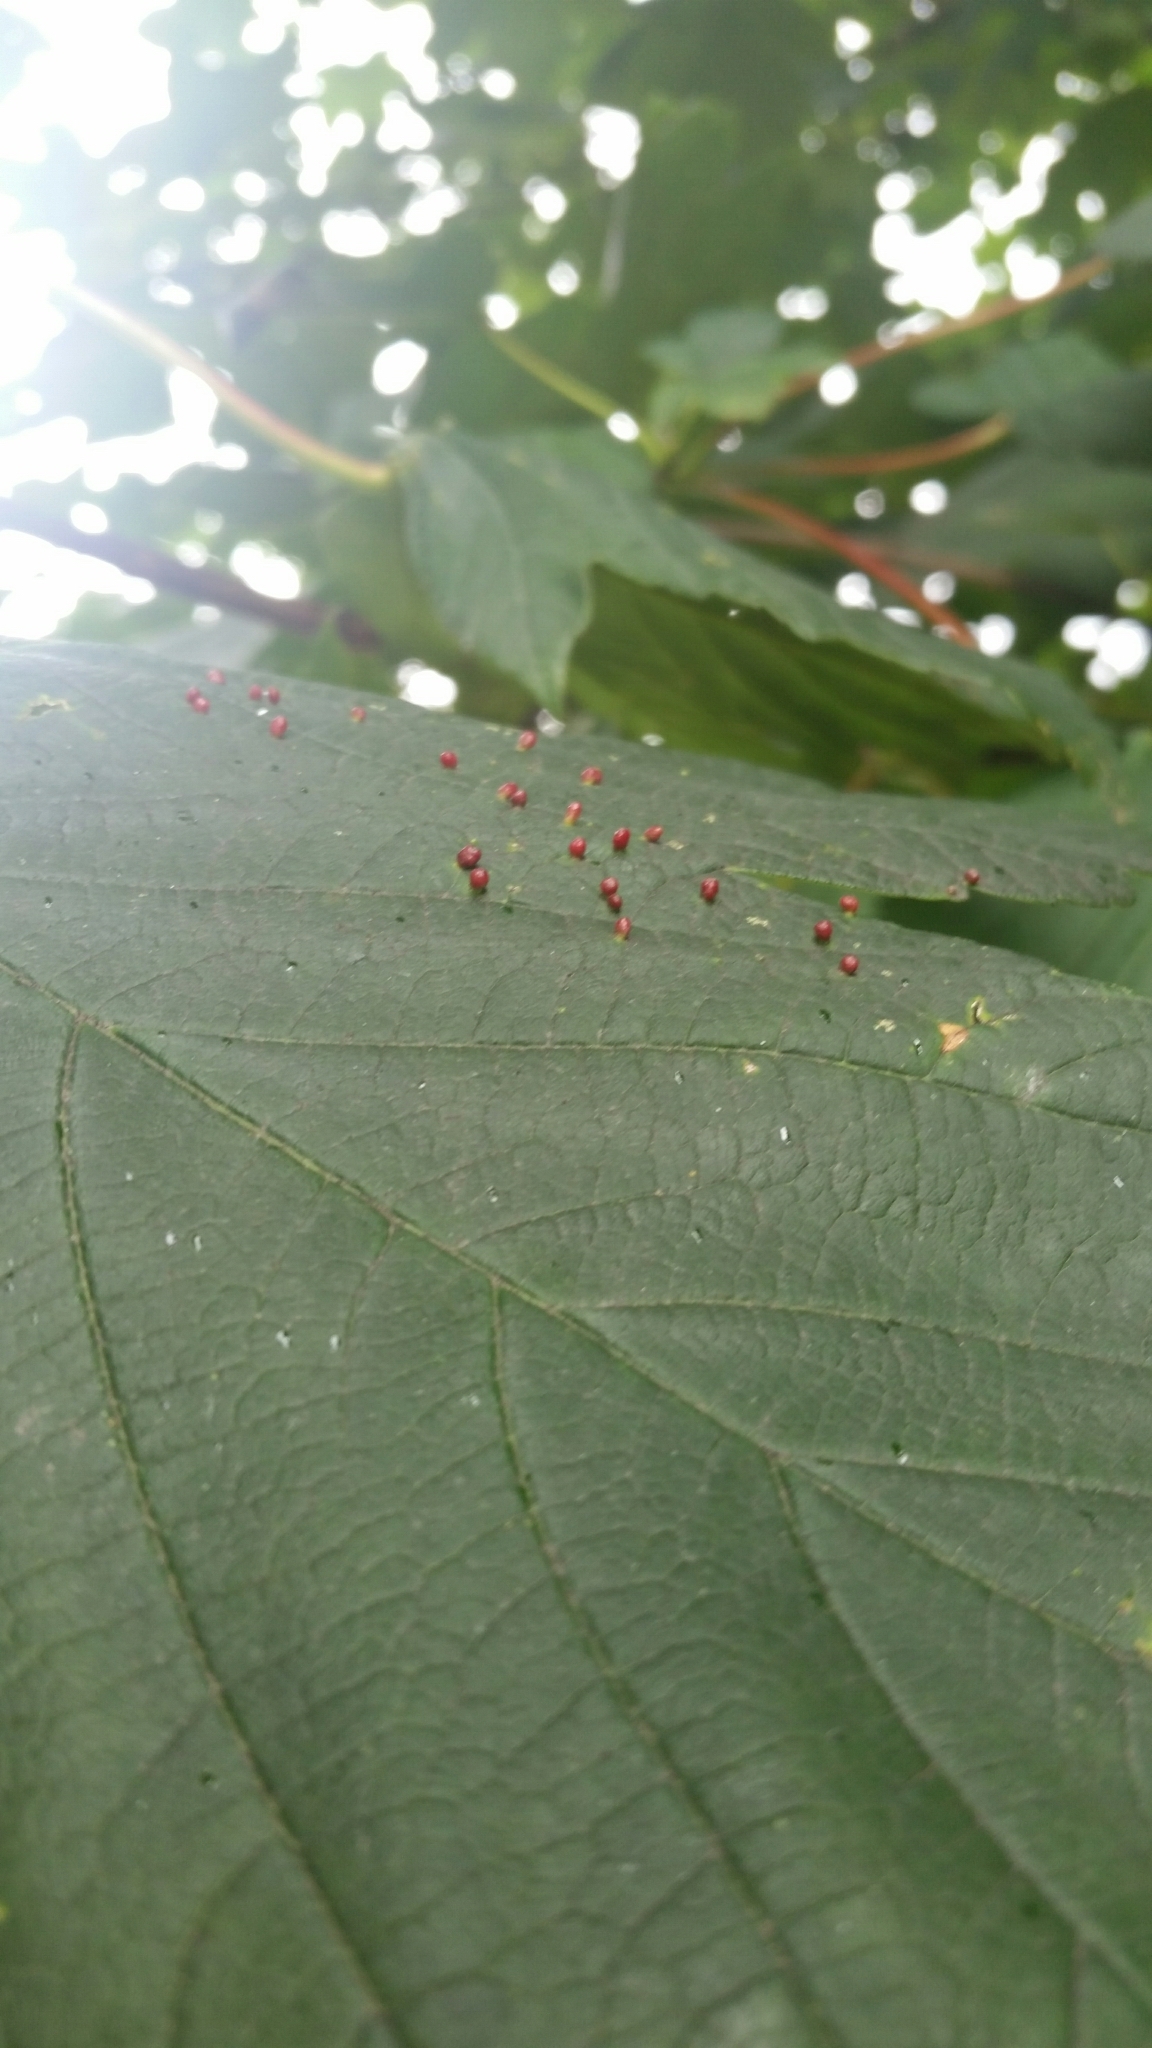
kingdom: Animalia
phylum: Arthropoda
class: Arachnida
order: Trombidiformes
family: Eriophyidae
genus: Aceria
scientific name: Aceria cephaloneus
